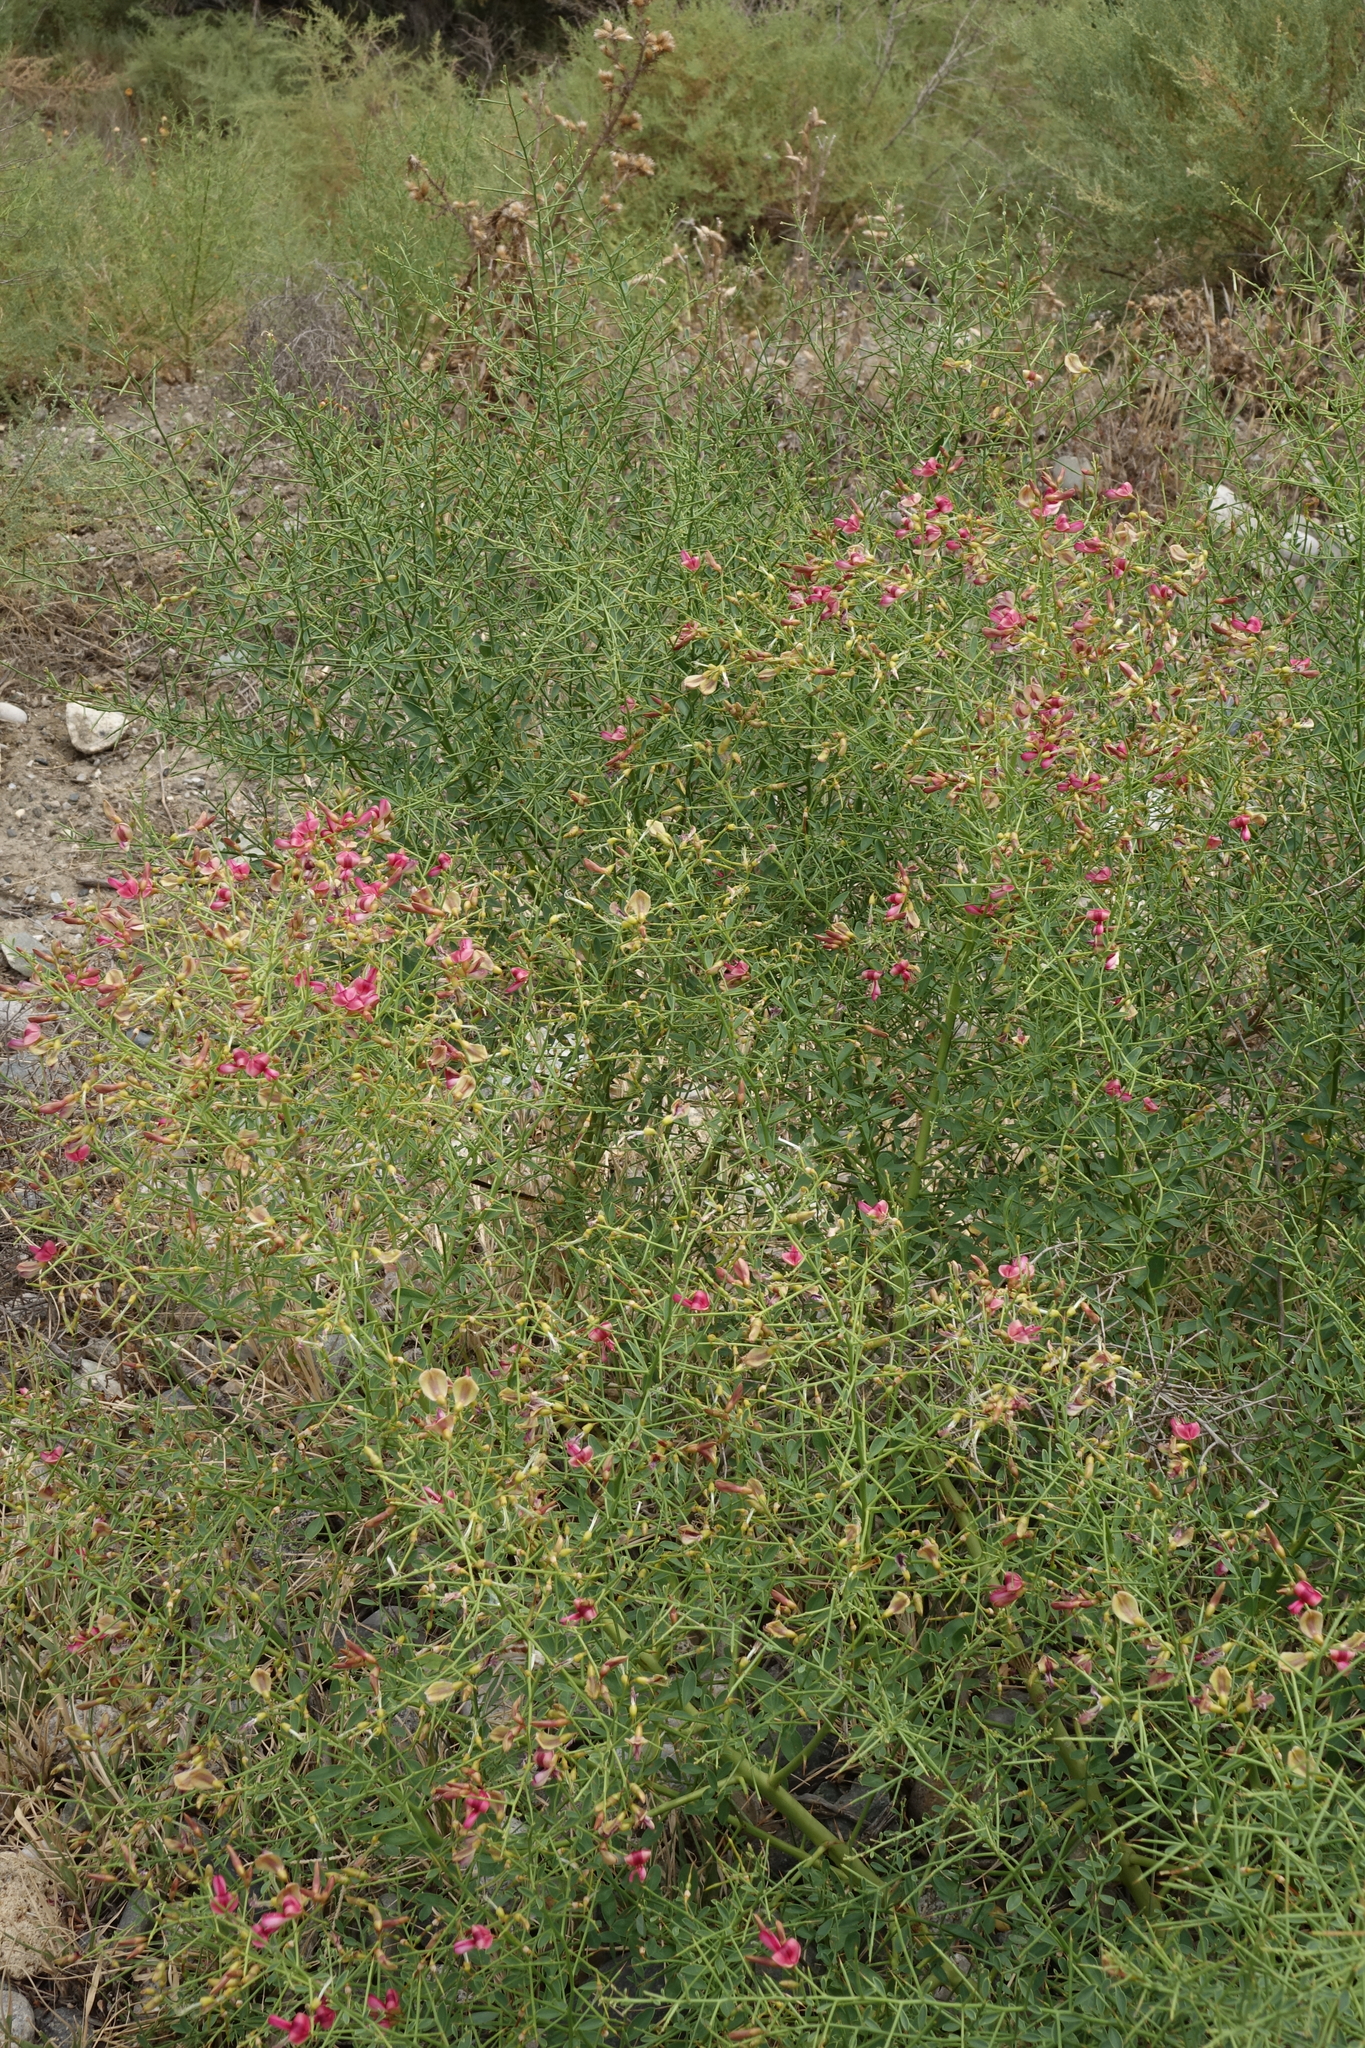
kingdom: Plantae
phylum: Tracheophyta
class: Magnoliopsida
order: Fabales
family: Fabaceae
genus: Alhagi
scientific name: Alhagi pseudalhagi
